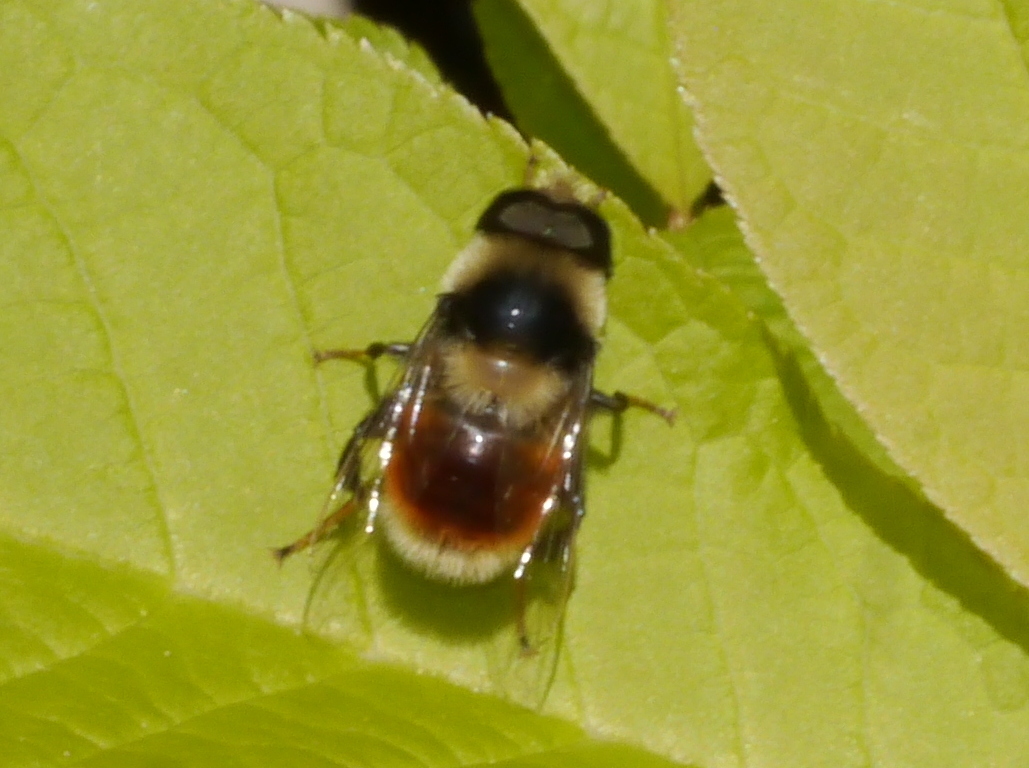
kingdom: Animalia
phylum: Arthropoda
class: Insecta
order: Diptera
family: Syrphidae
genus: Eristalis
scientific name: Eristalis flavipes
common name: Orange-legged drone fly
